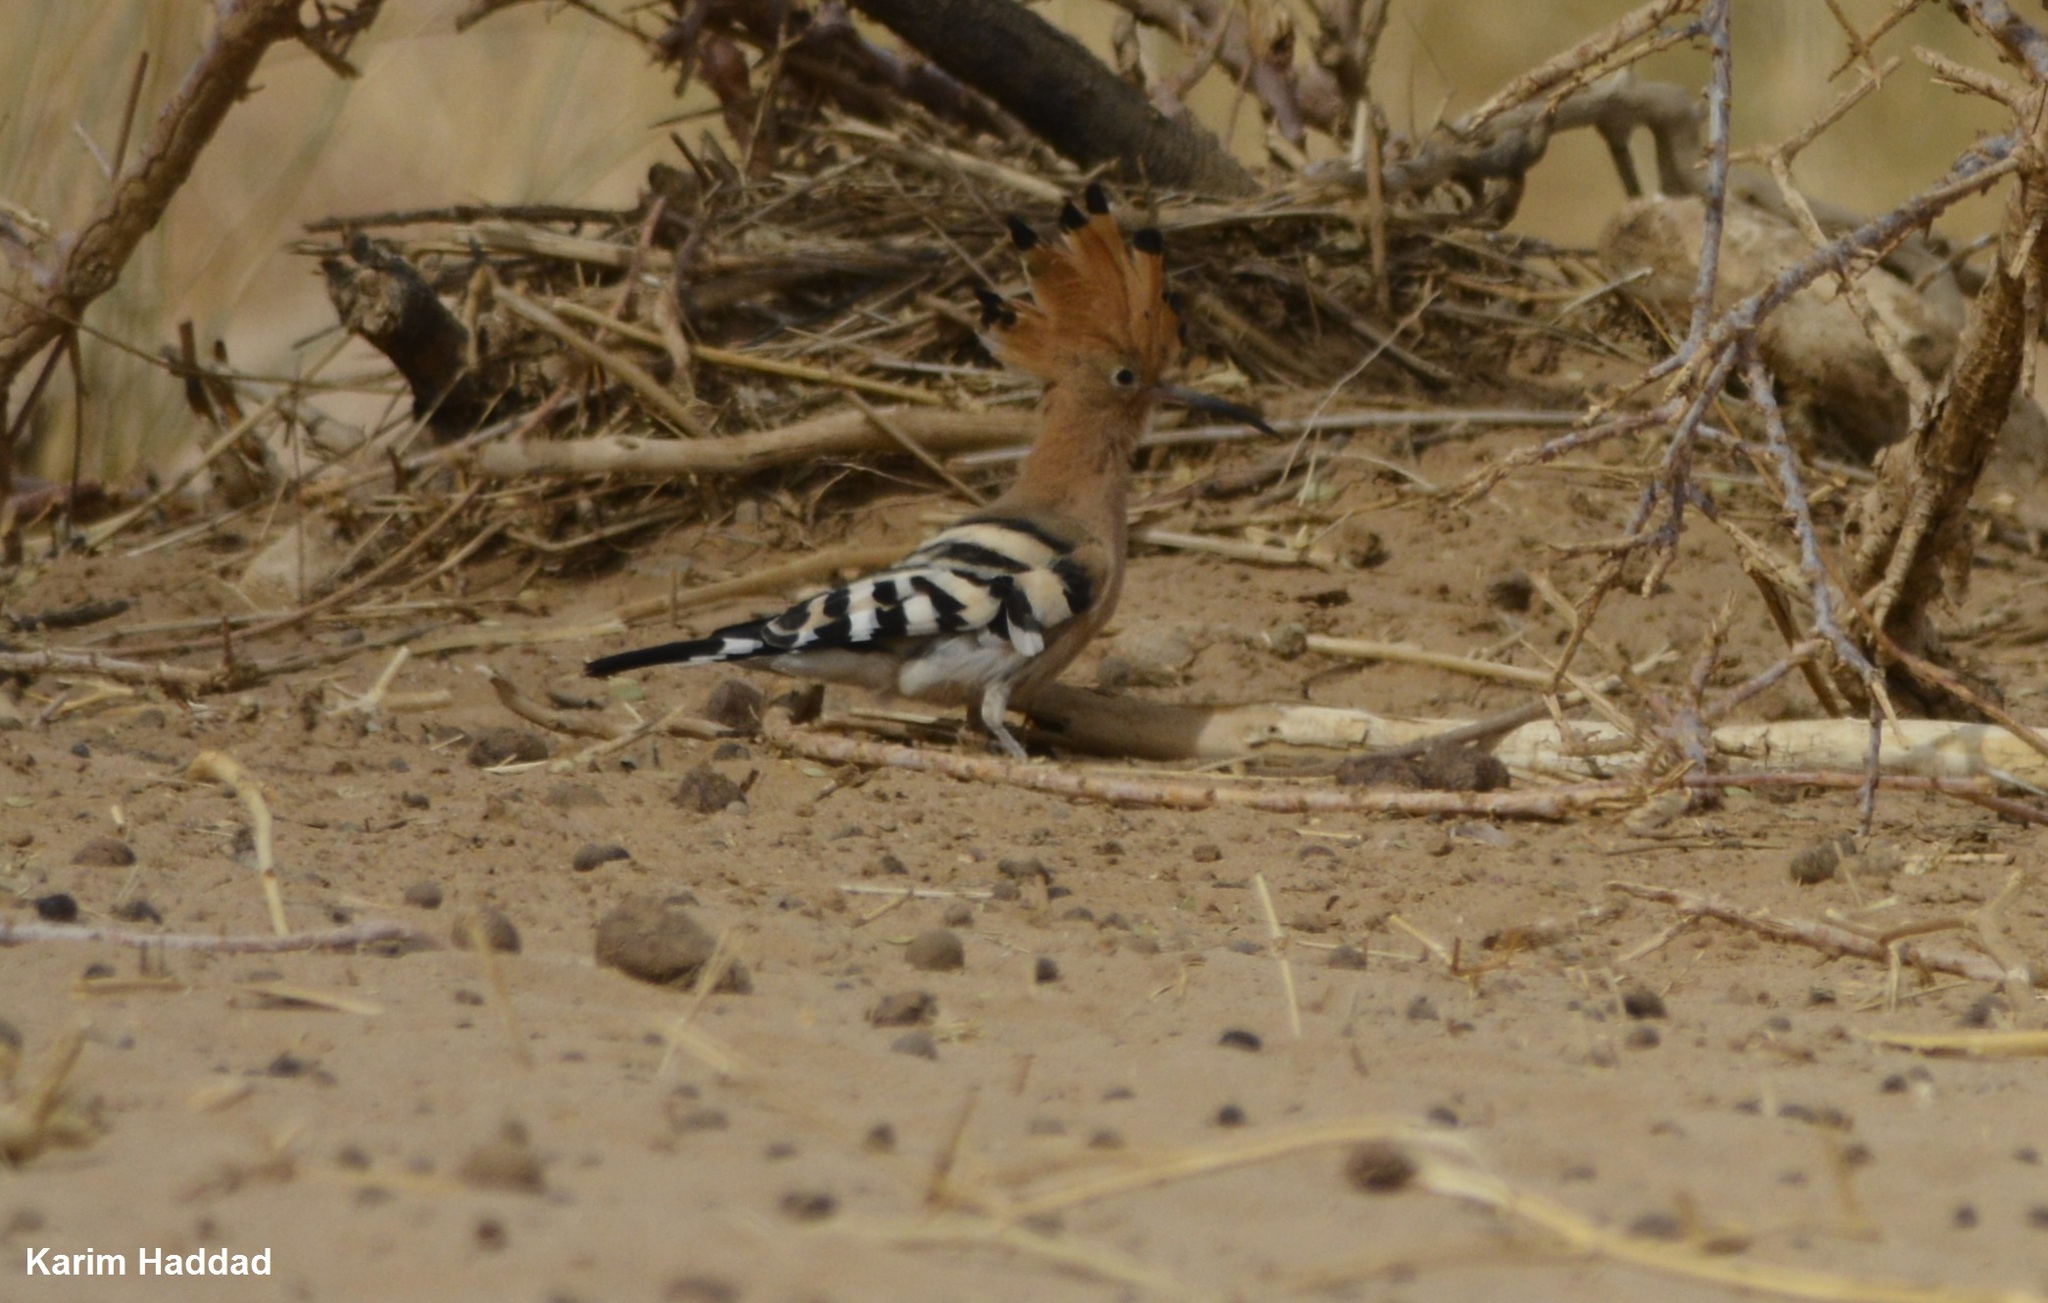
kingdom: Animalia
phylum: Chordata
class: Aves
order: Bucerotiformes
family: Upupidae
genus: Upupa
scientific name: Upupa epops
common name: Eurasian hoopoe
